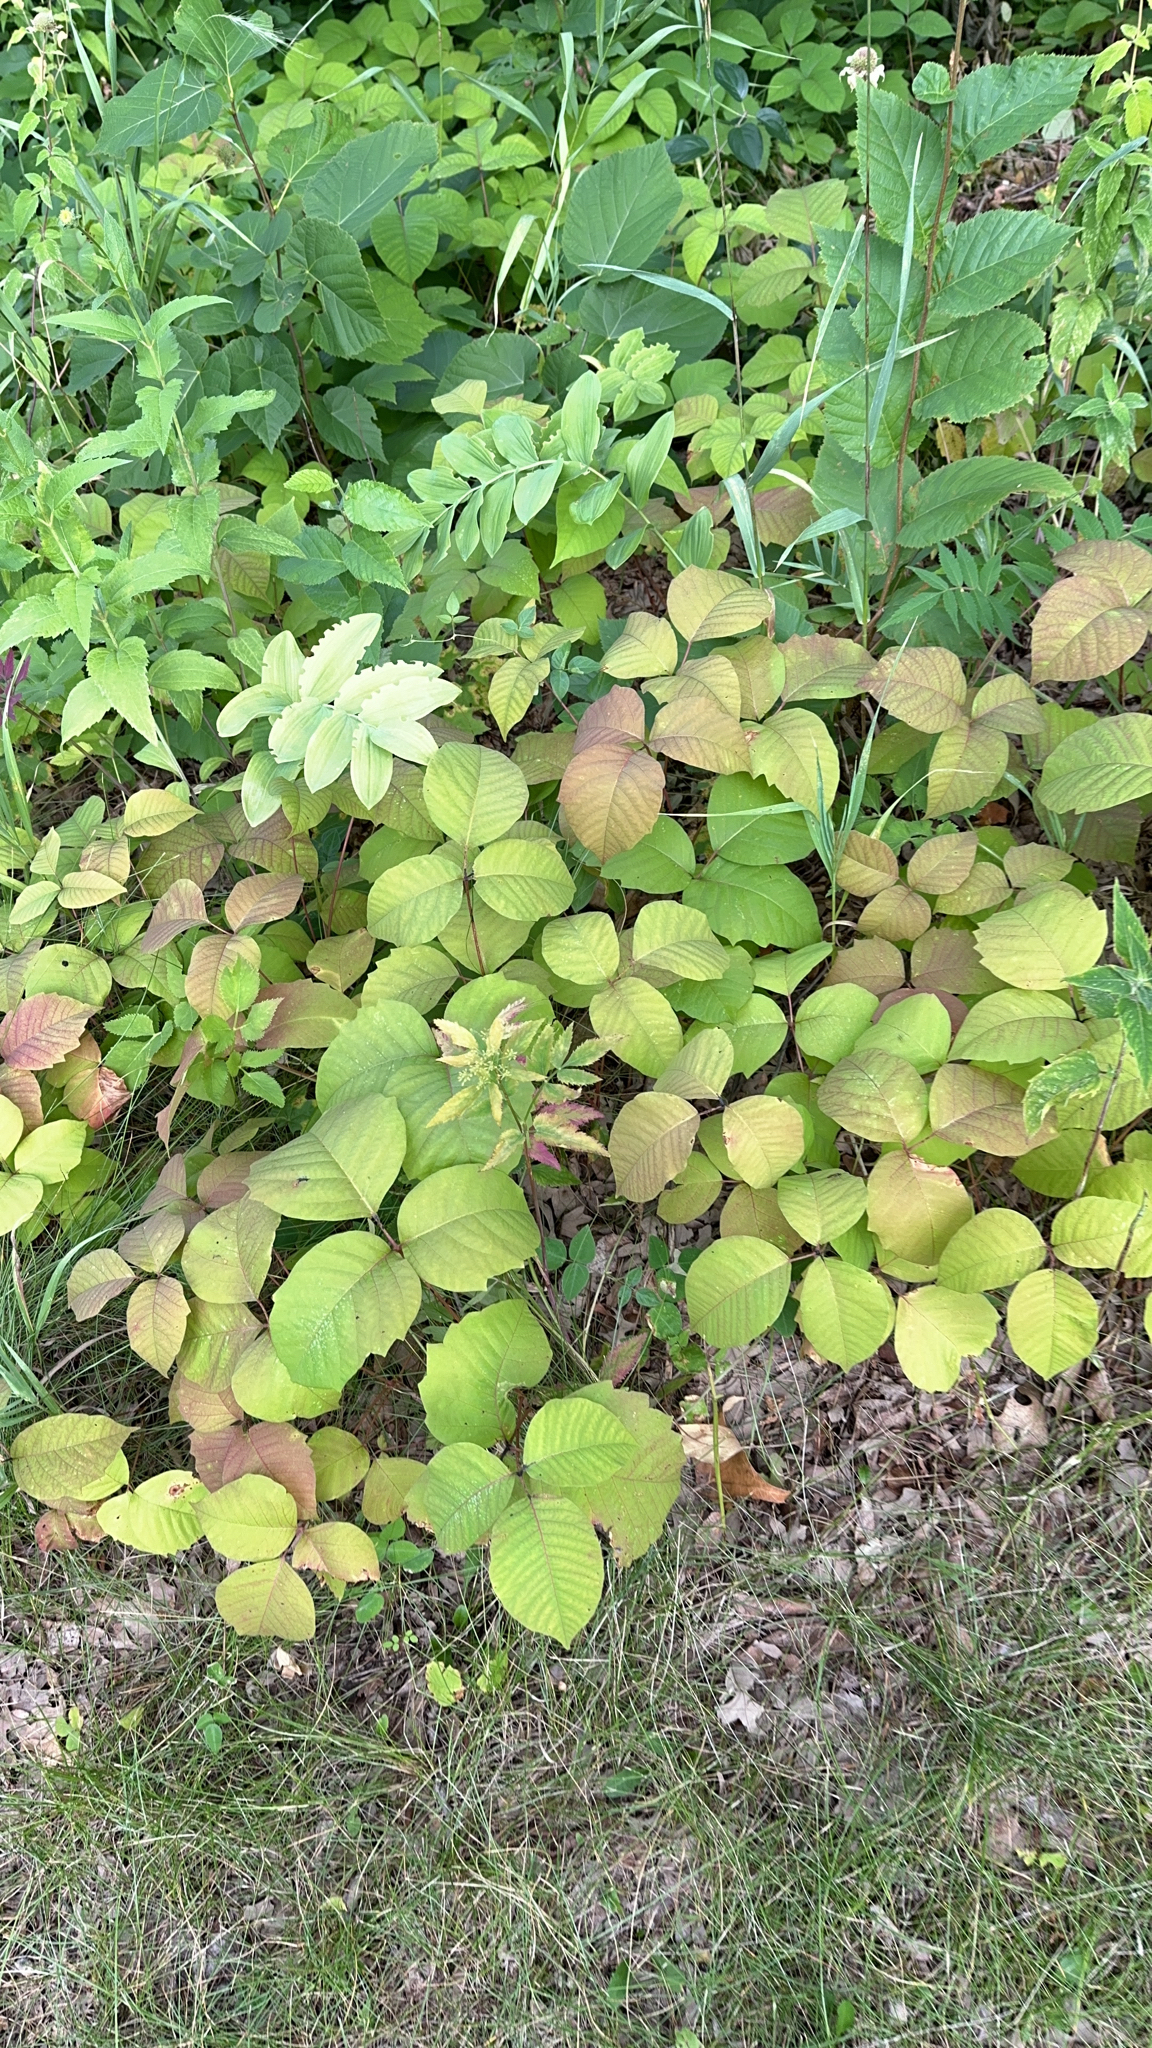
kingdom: Plantae
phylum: Tracheophyta
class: Magnoliopsida
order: Sapindales
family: Anacardiaceae
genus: Toxicodendron
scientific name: Toxicodendron rydbergii
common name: Rydberg's poison-ivy
